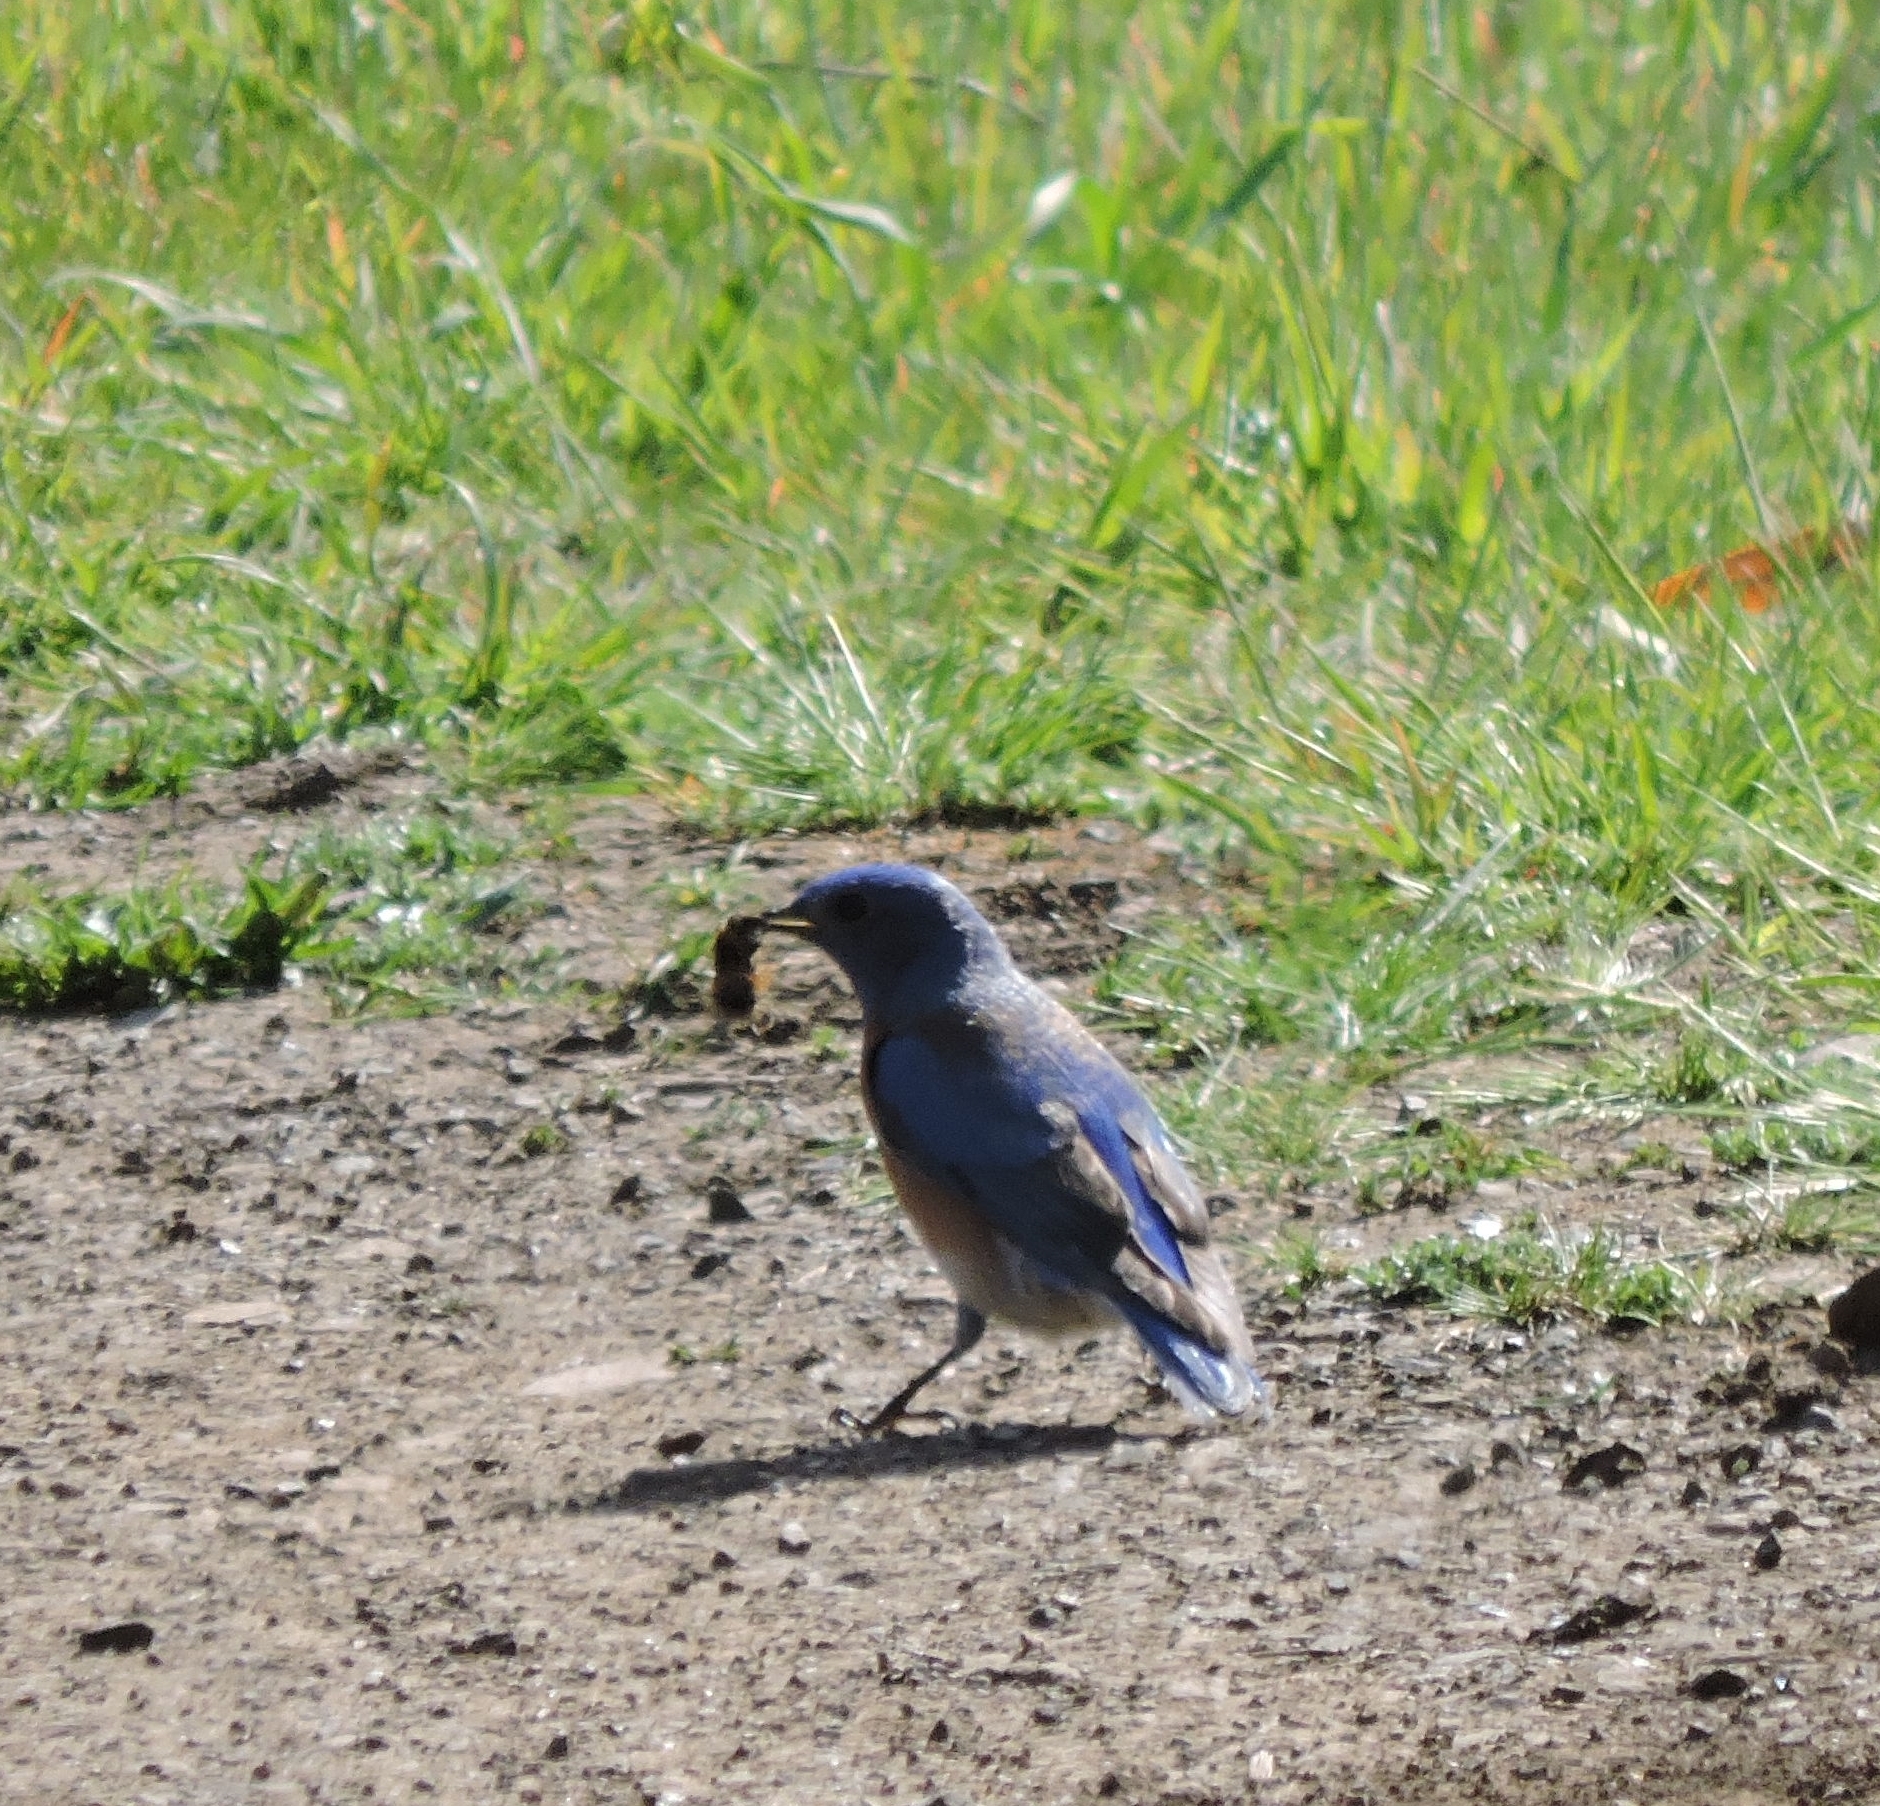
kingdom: Animalia
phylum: Chordata
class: Aves
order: Passeriformes
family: Turdidae
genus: Sialia
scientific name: Sialia mexicana
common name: Western bluebird
